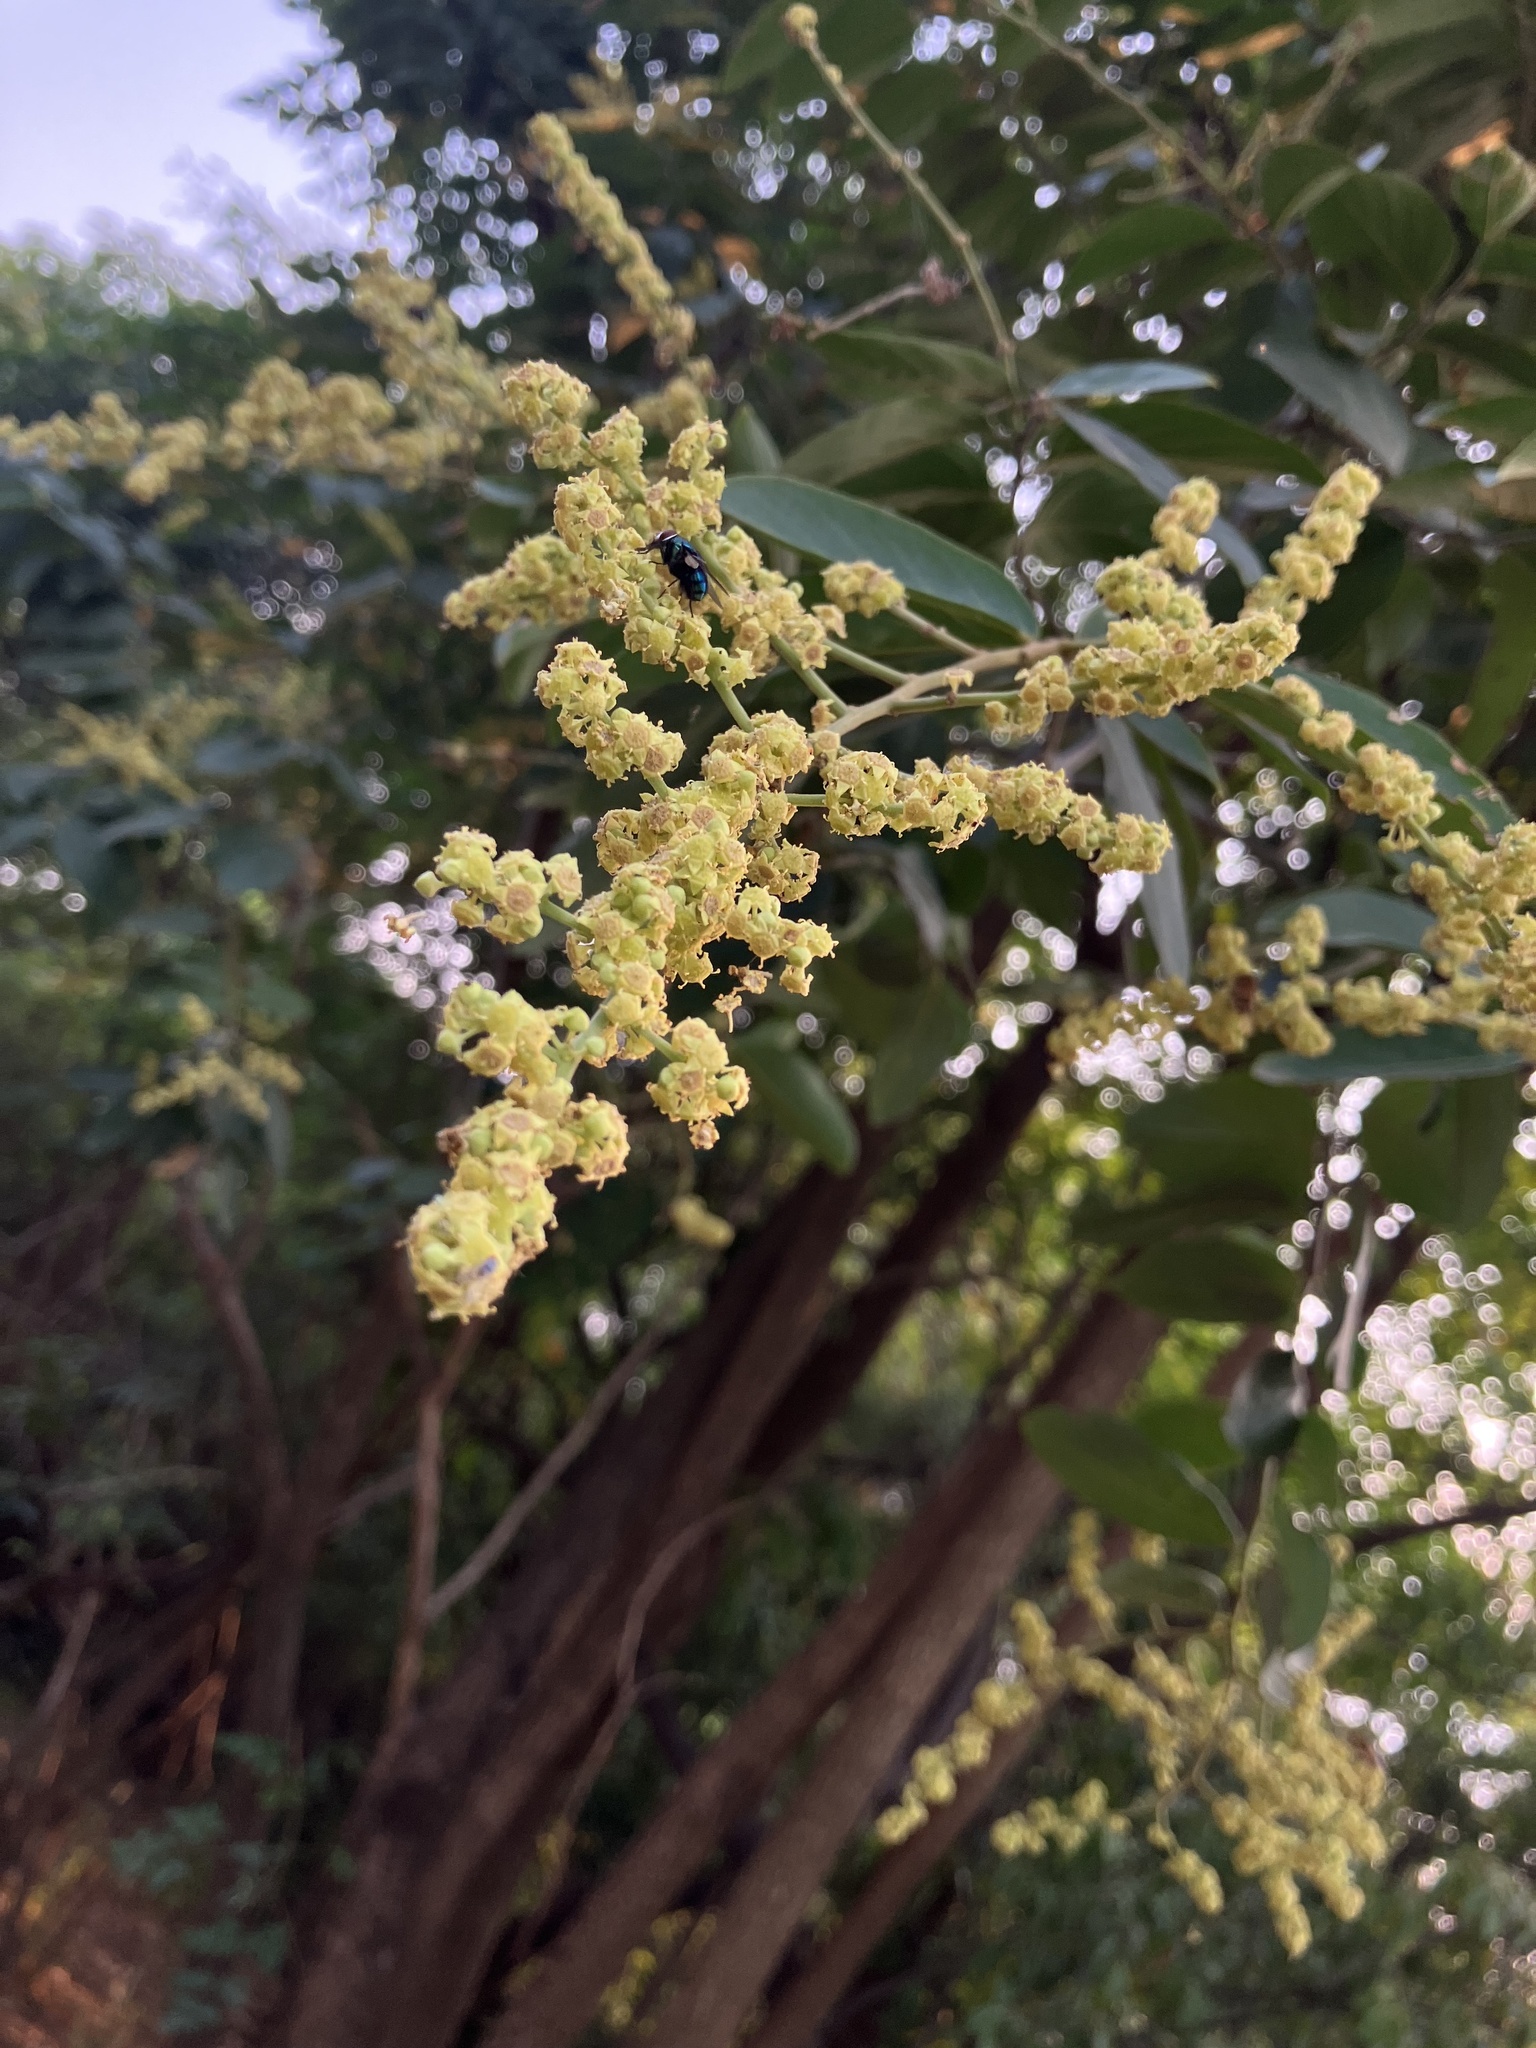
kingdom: Plantae
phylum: Tracheophyta
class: Magnoliopsida
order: Rosales
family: Rhamnaceae
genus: Ventilago
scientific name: Ventilago denticulata
